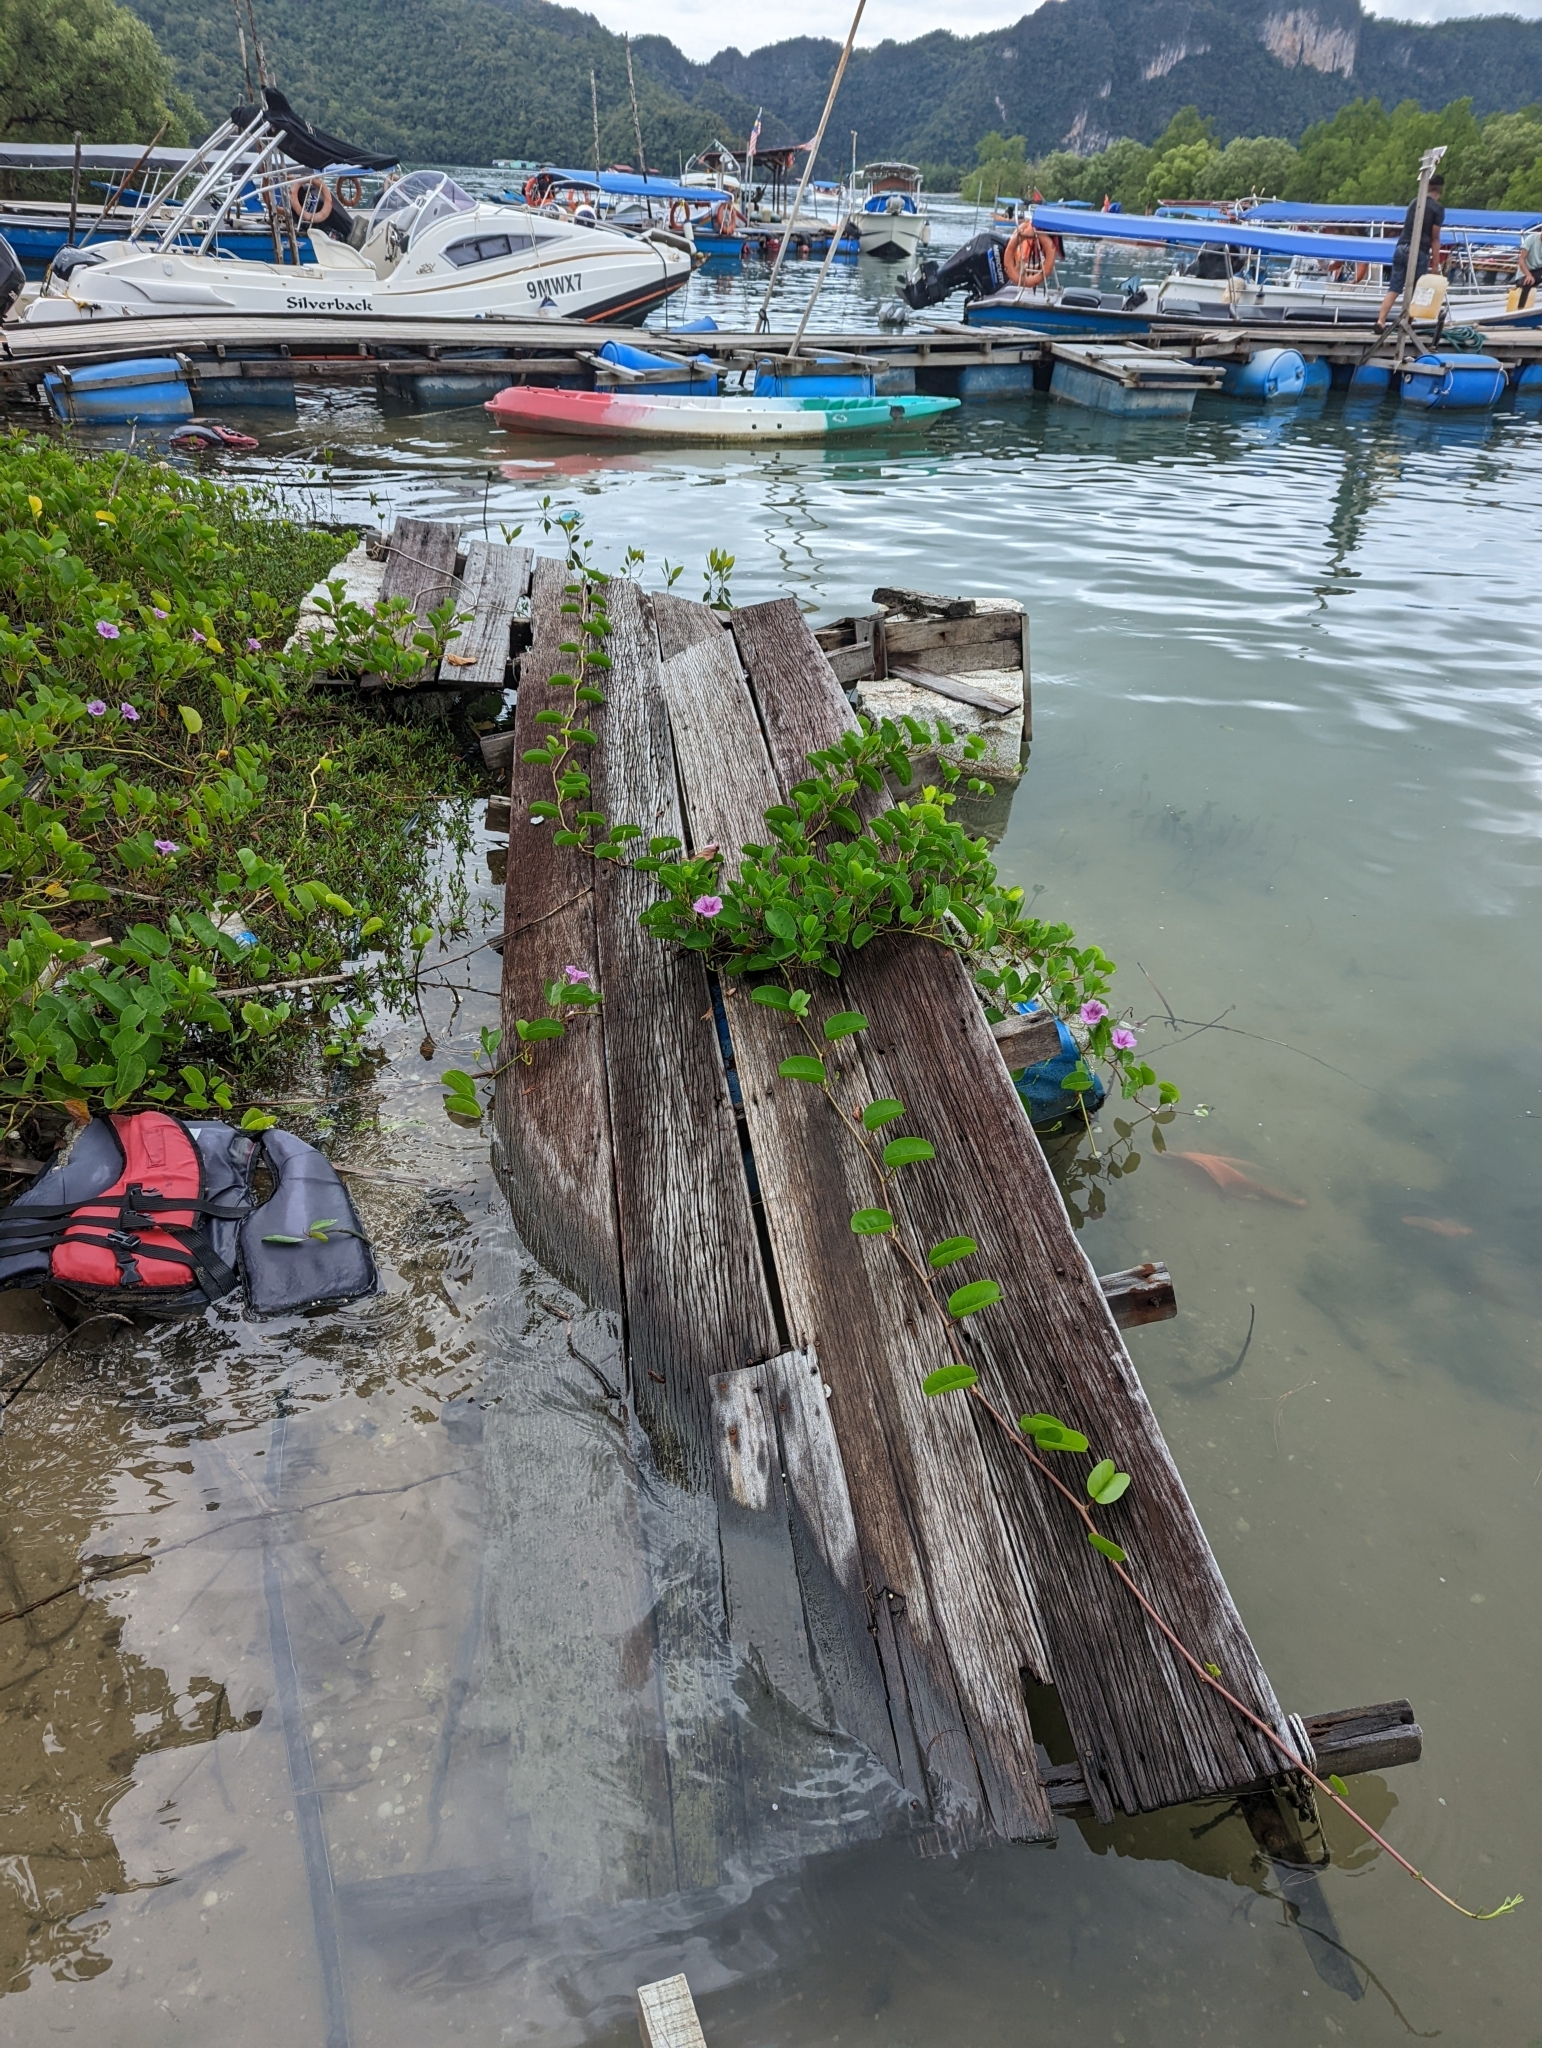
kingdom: Plantae
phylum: Tracheophyta
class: Magnoliopsida
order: Solanales
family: Convolvulaceae
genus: Ipomoea
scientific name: Ipomoea pes-caprae
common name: Beach morning glory
